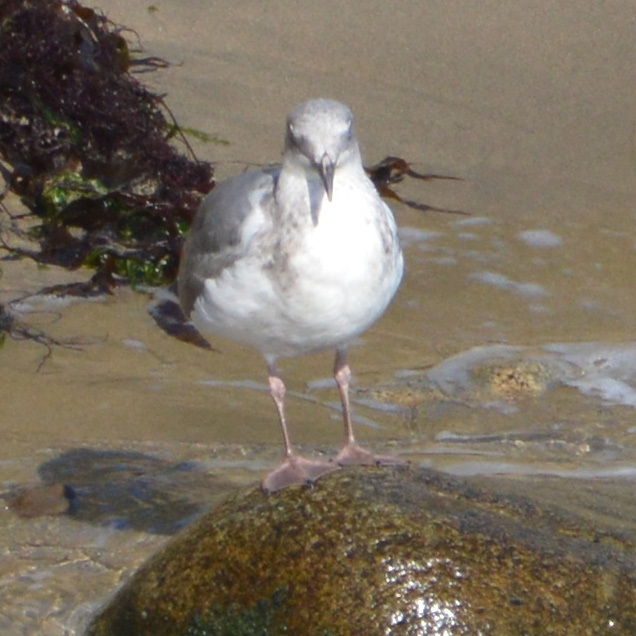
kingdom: Animalia
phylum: Chordata
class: Aves
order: Charadriiformes
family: Laridae
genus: Larus
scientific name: Larus occidentalis
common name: Western gull
